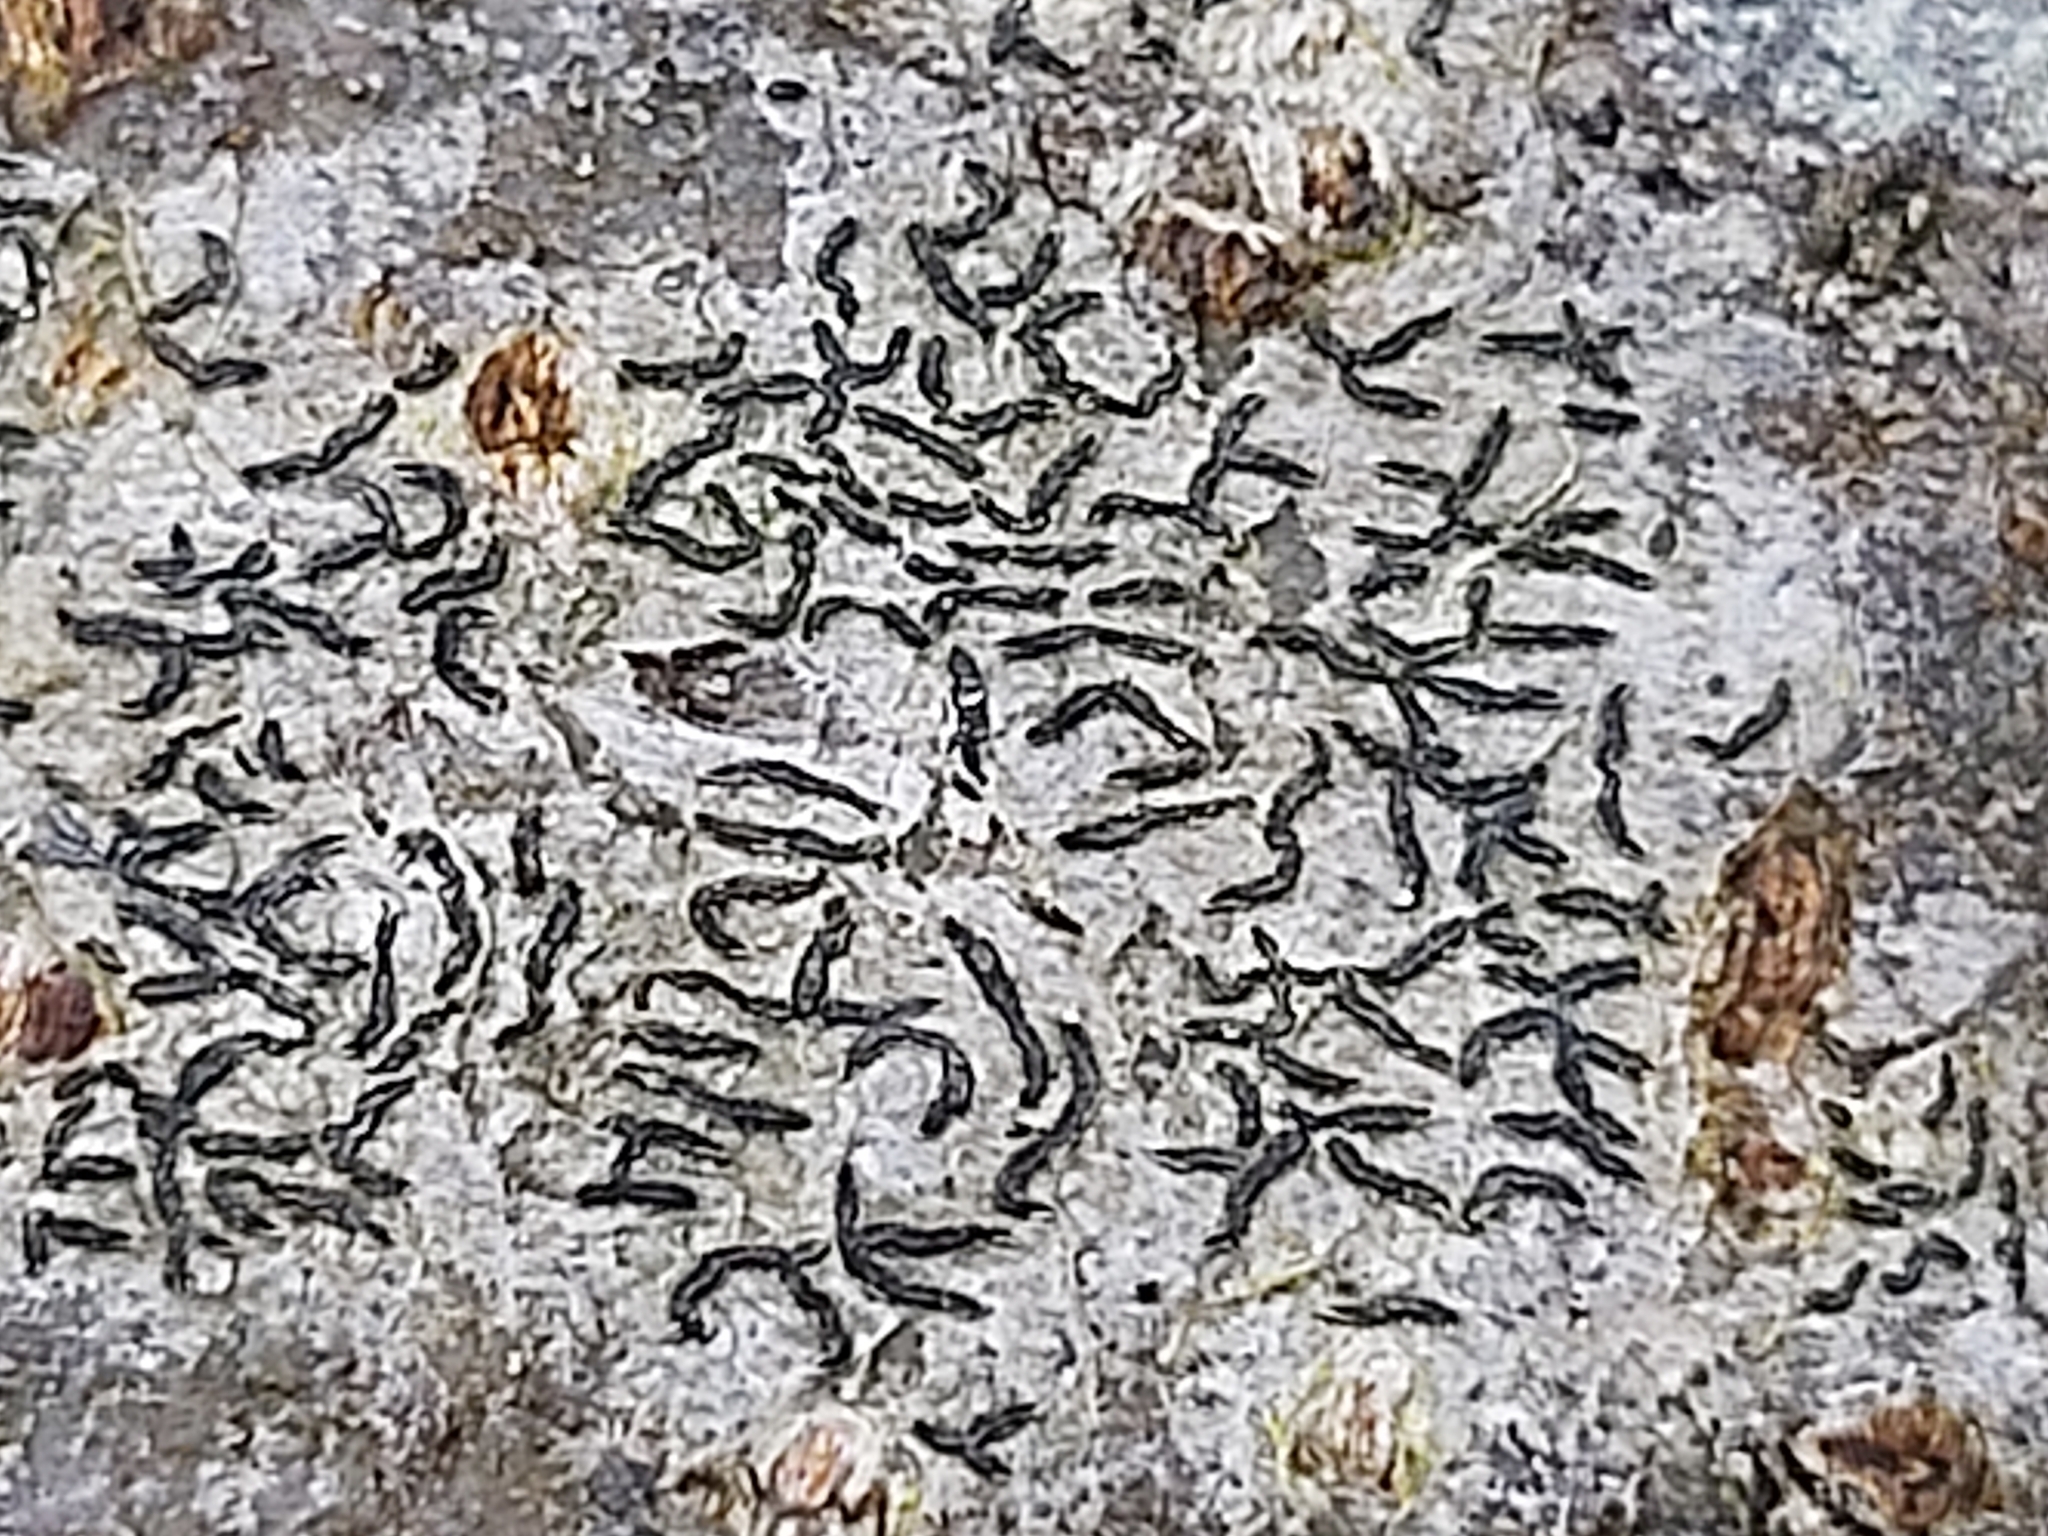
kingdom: Fungi
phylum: Ascomycota
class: Lecanoromycetes
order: Ostropales
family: Graphidaceae
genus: Graphis
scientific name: Graphis scripta
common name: Script lichen
